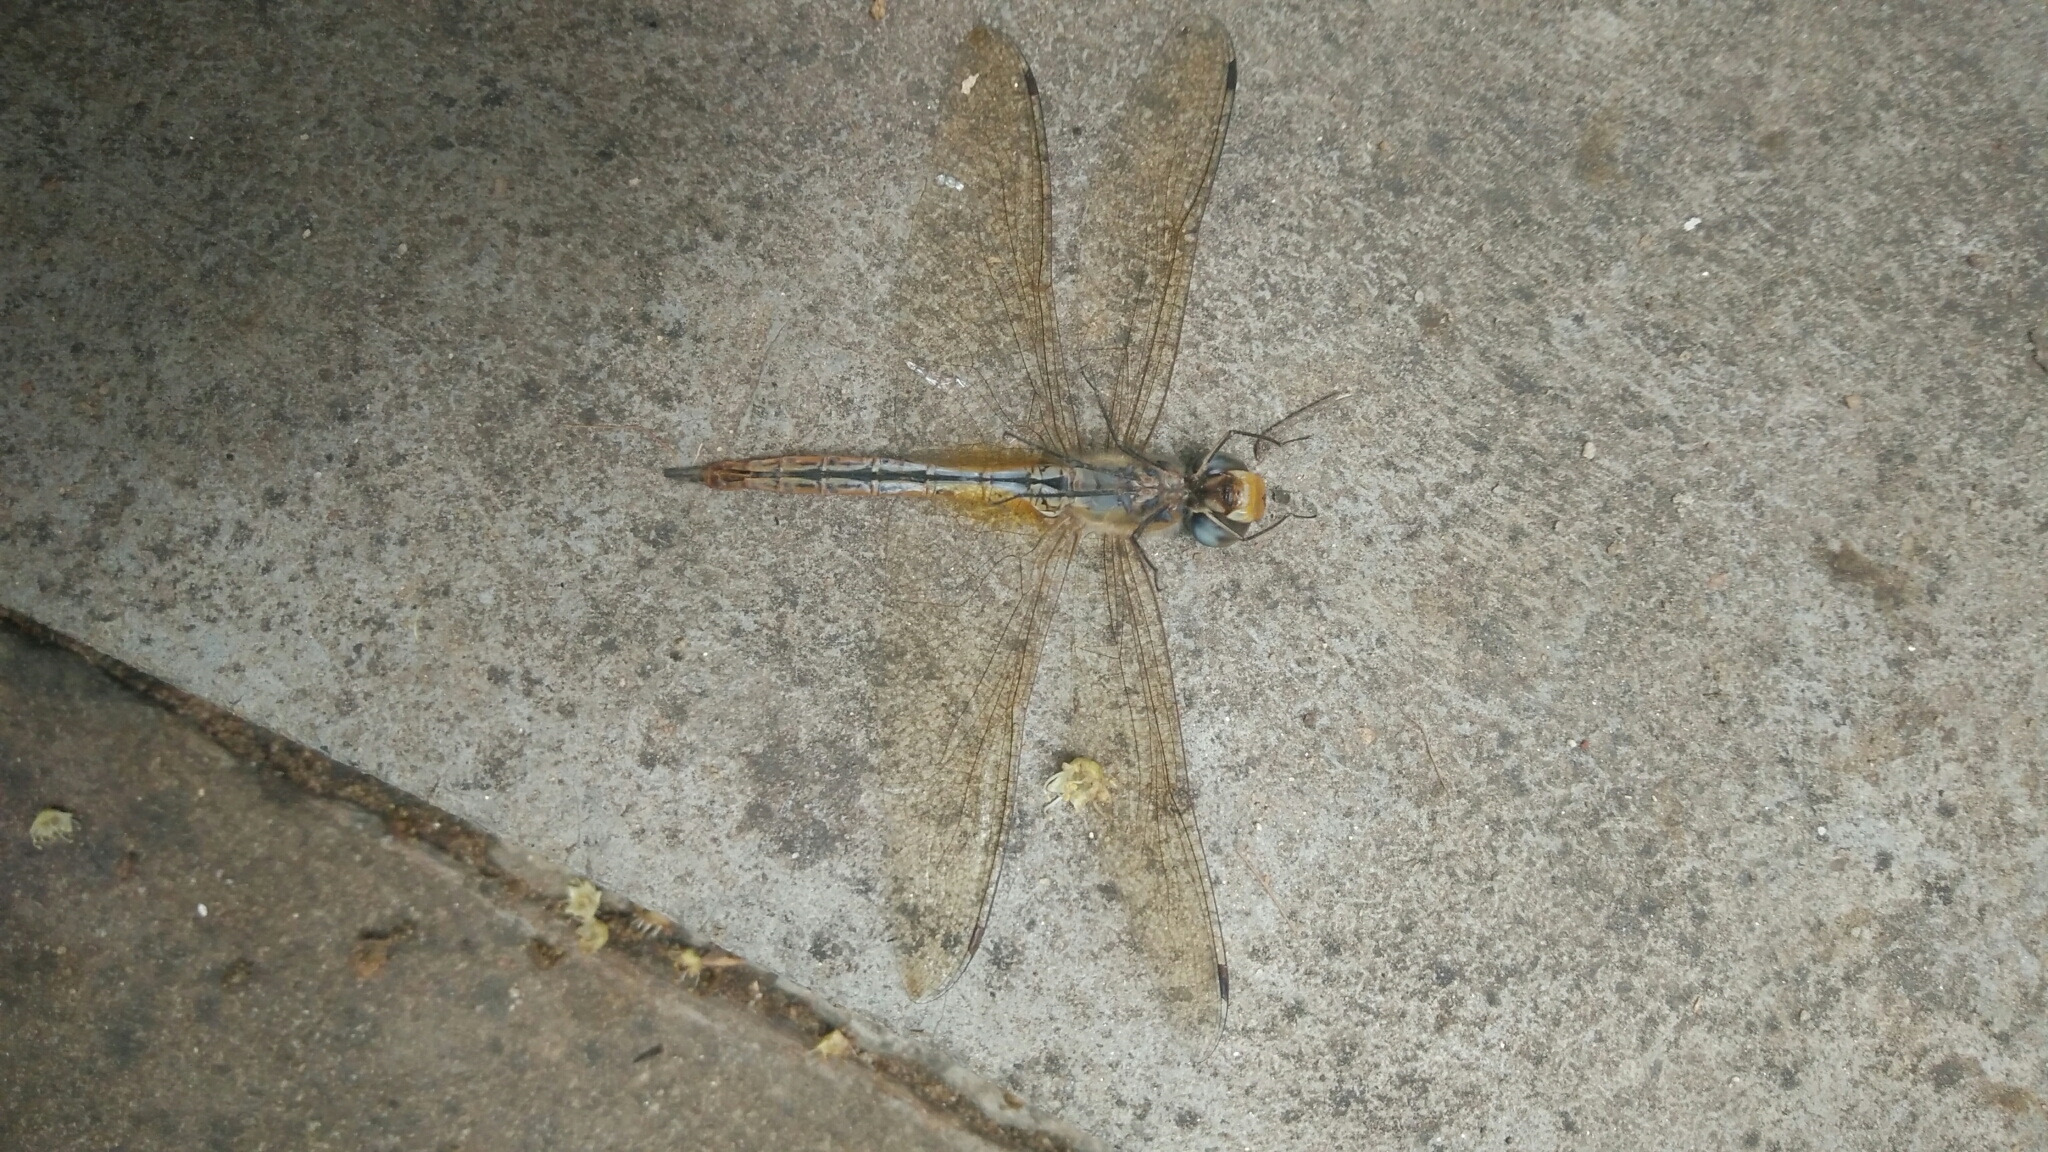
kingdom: Animalia
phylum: Arthropoda
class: Insecta
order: Odonata
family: Libellulidae
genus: Pantala
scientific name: Pantala flavescens
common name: Wandering glider
